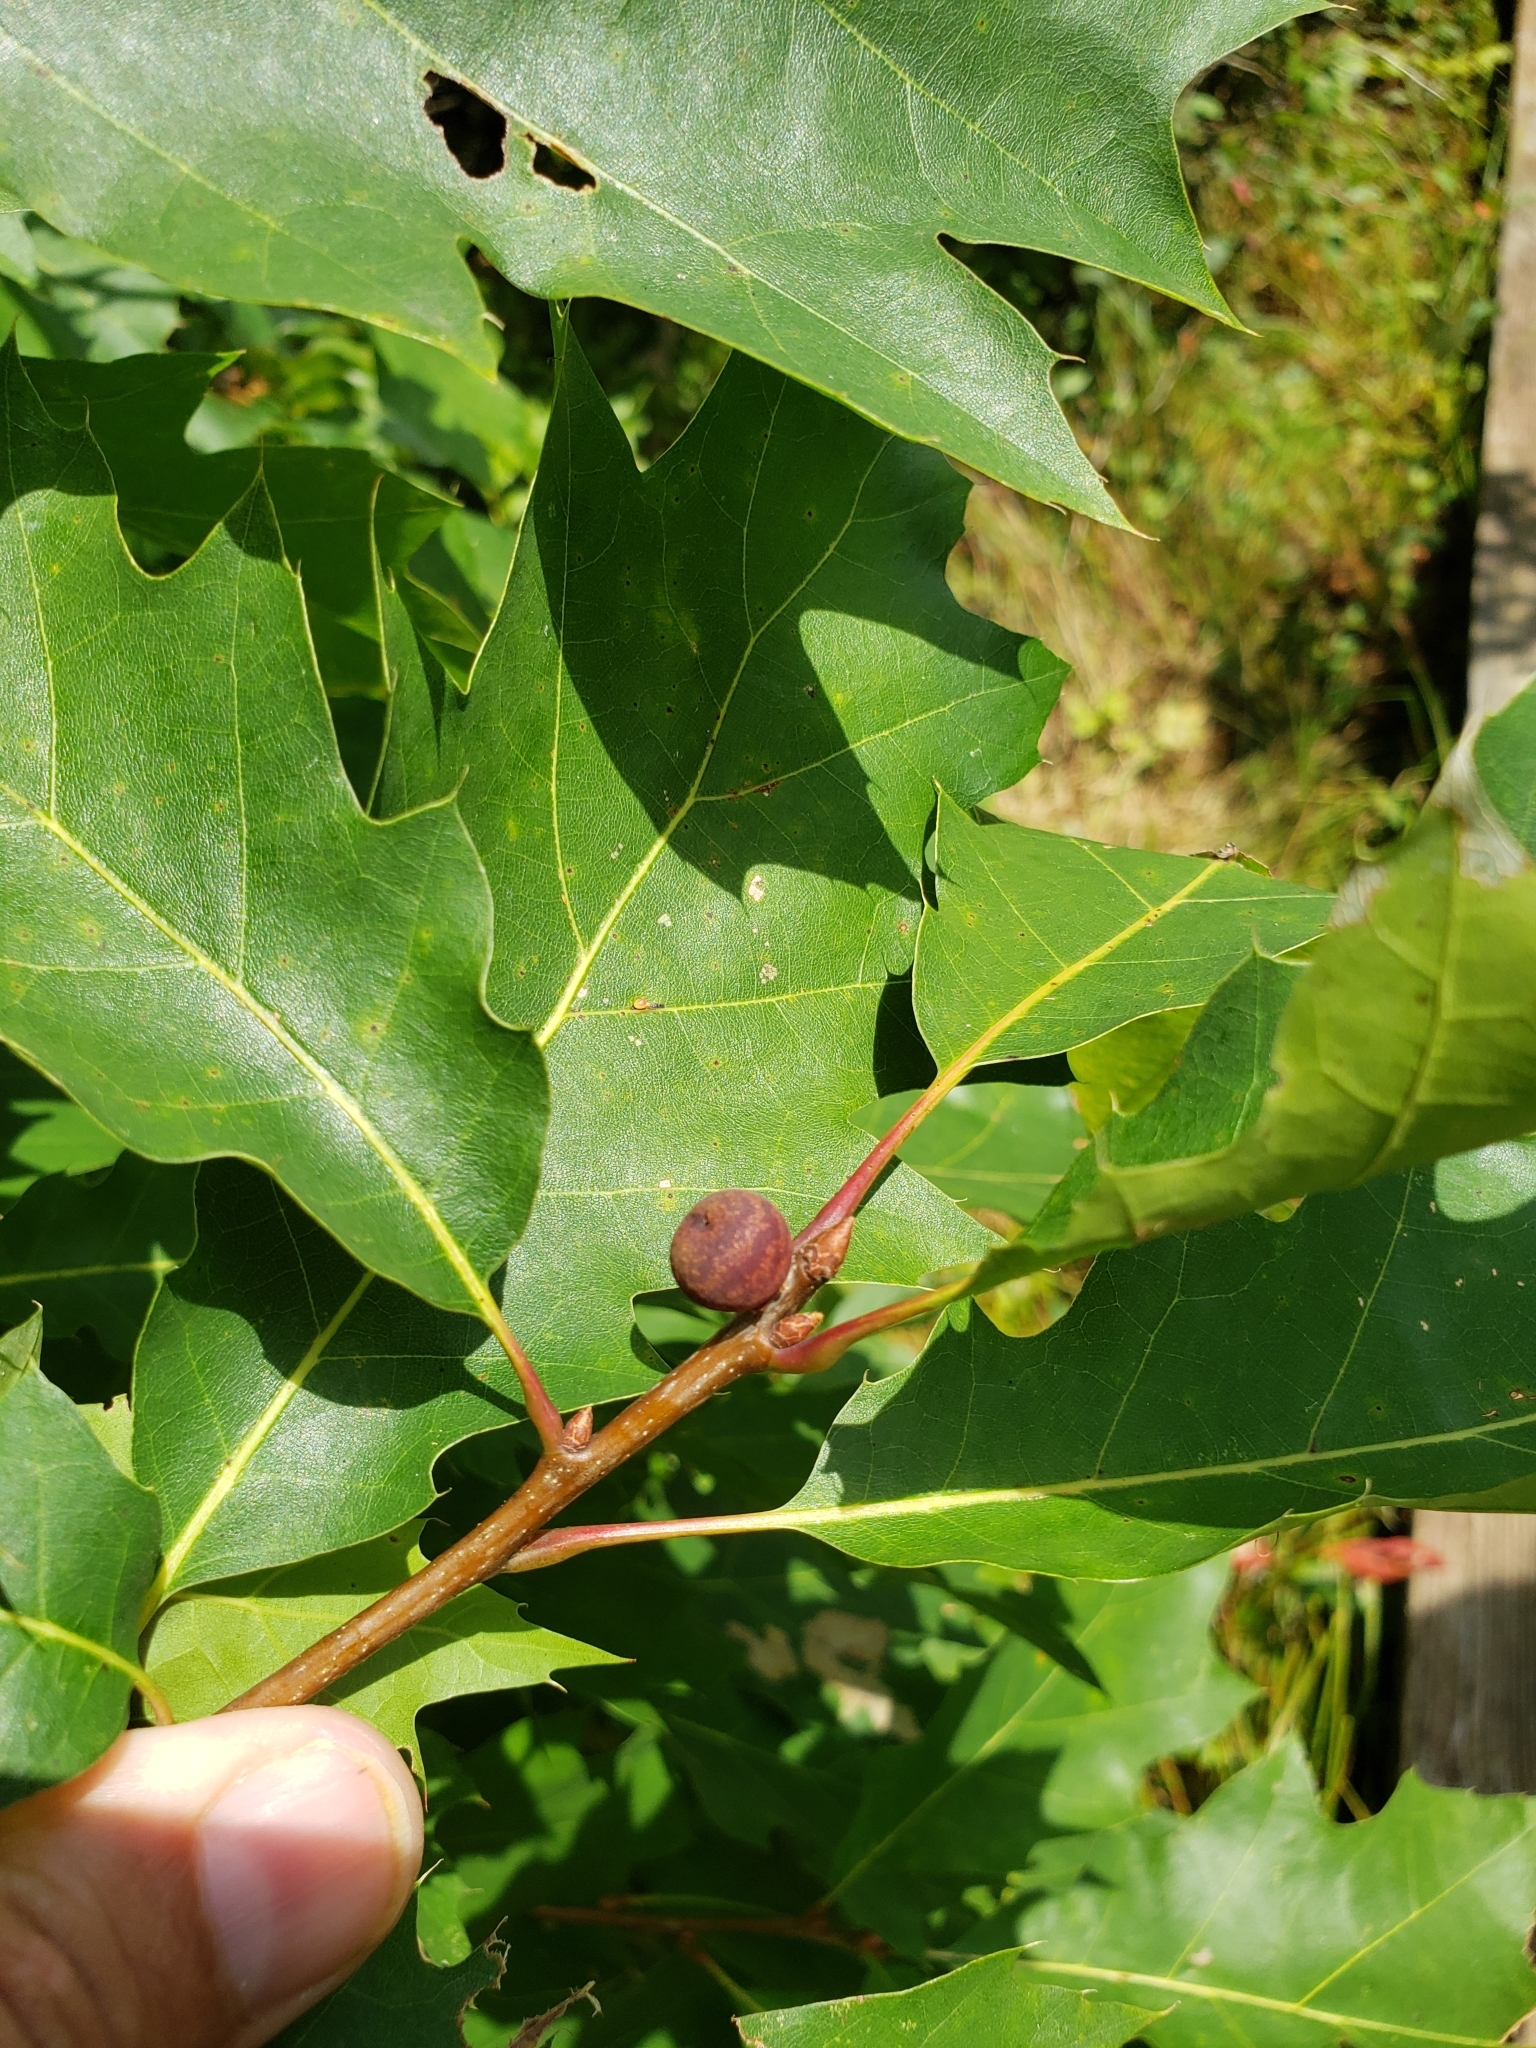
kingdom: Animalia
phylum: Arthropoda
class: Insecta
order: Hymenoptera
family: Cynipidae
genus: Kokkocynips
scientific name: Kokkocynips imbricariae
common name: Banded bullet gall wasp
